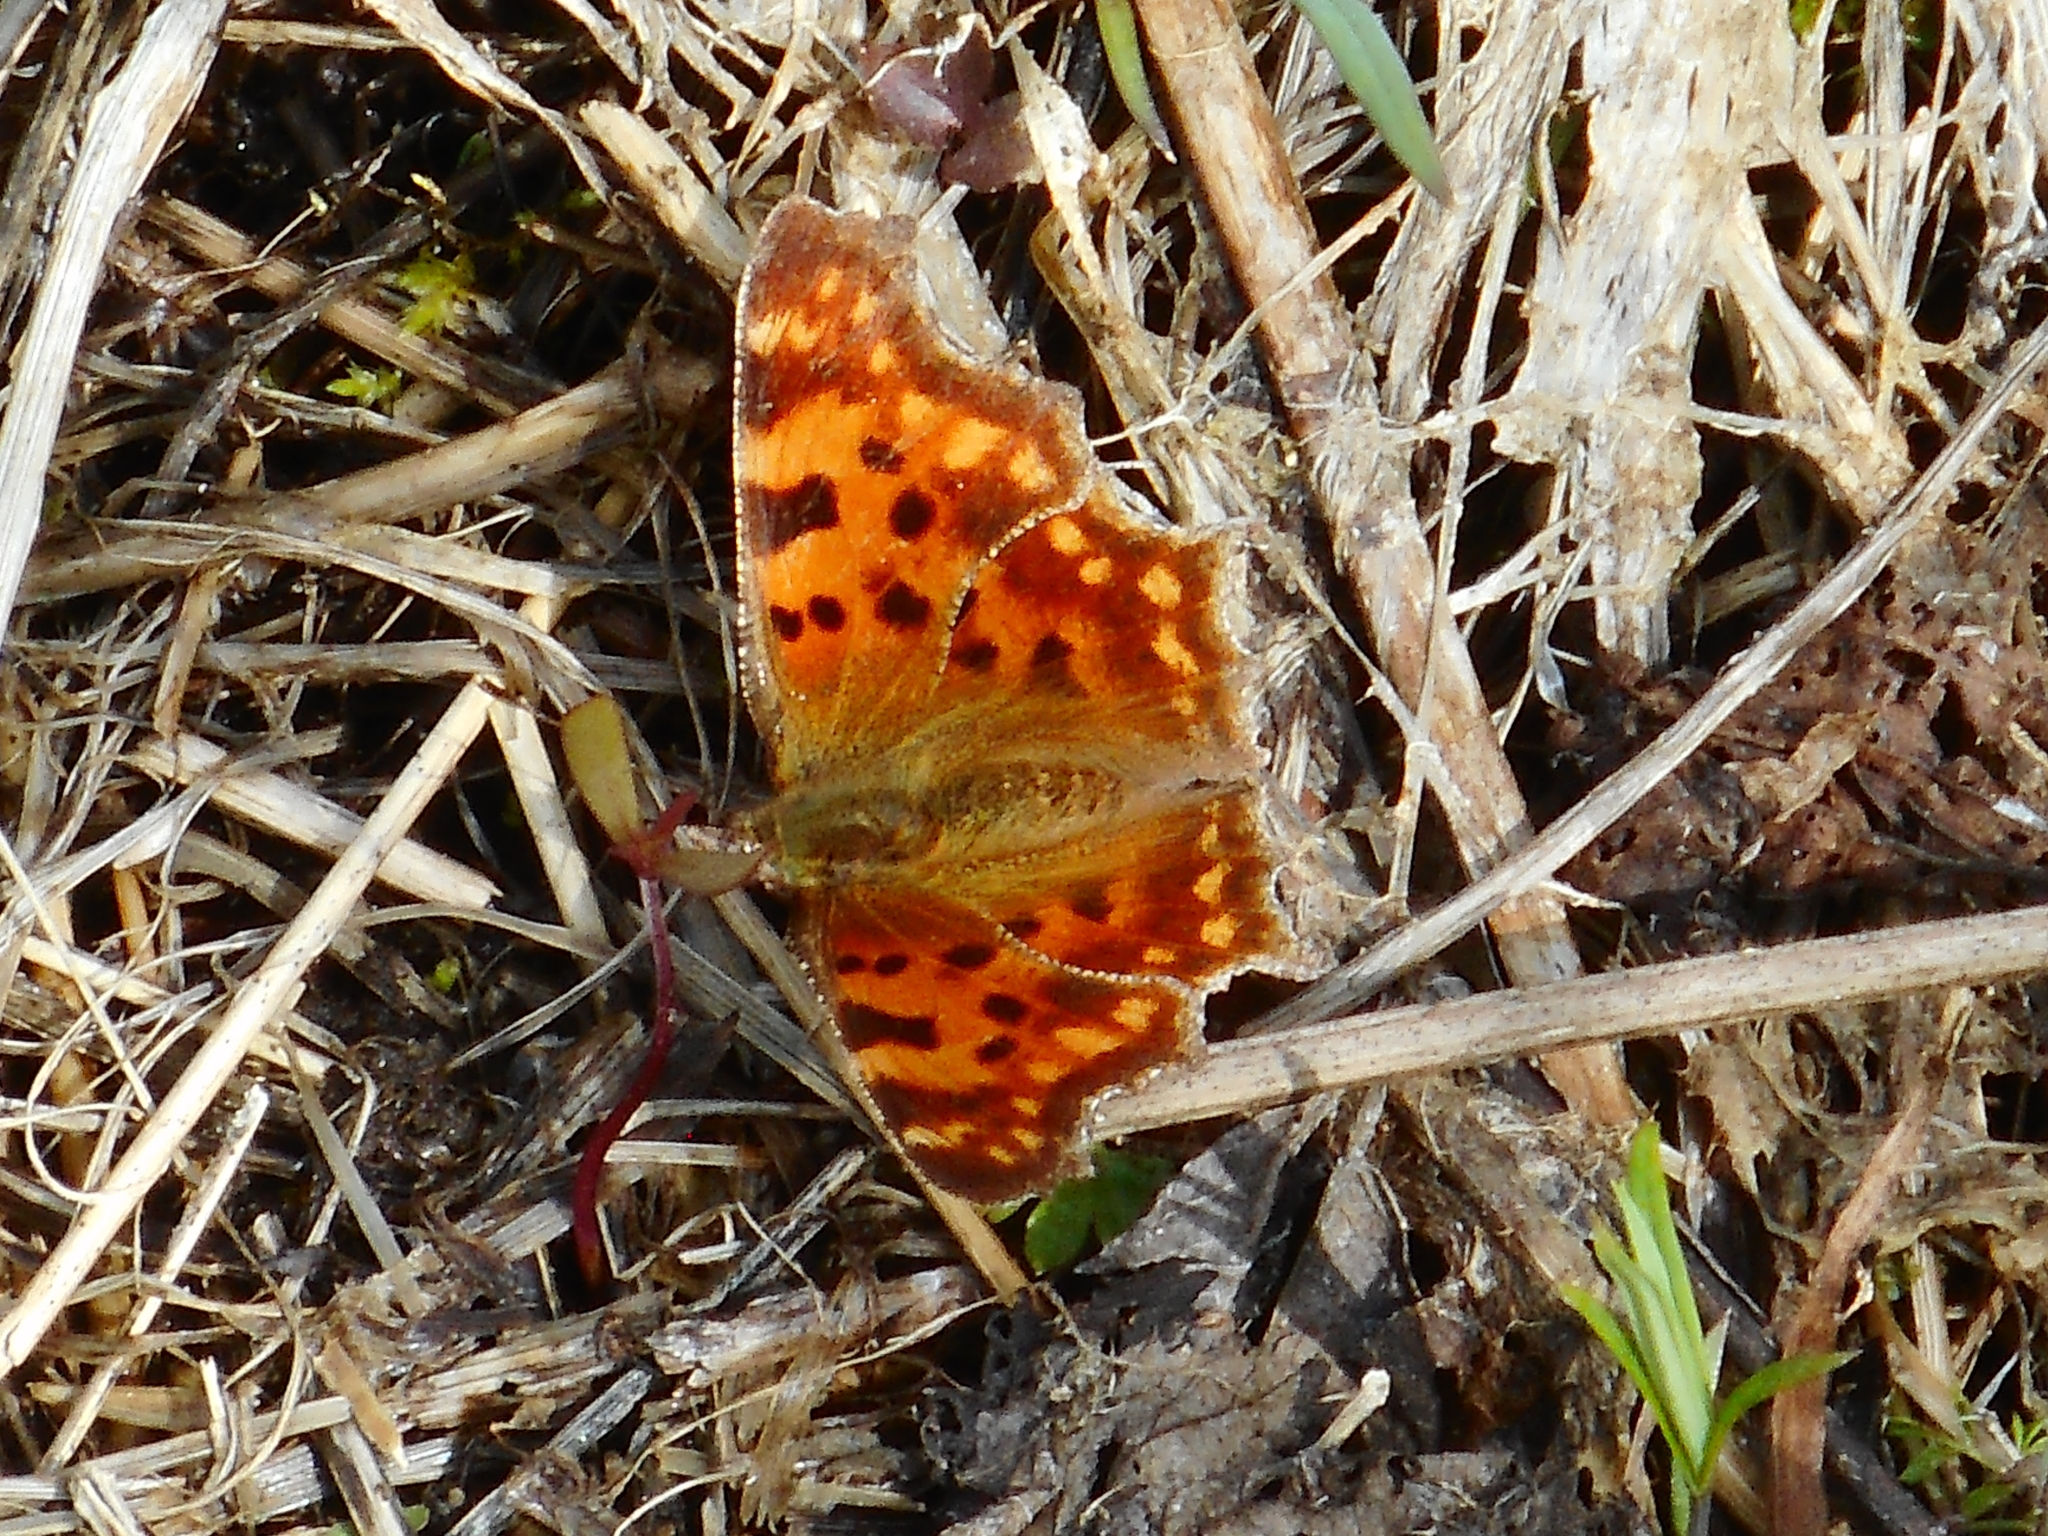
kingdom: Animalia
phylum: Arthropoda
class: Insecta
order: Lepidoptera
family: Nymphalidae
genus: Polygonia
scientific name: Polygonia c-album
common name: Comma
